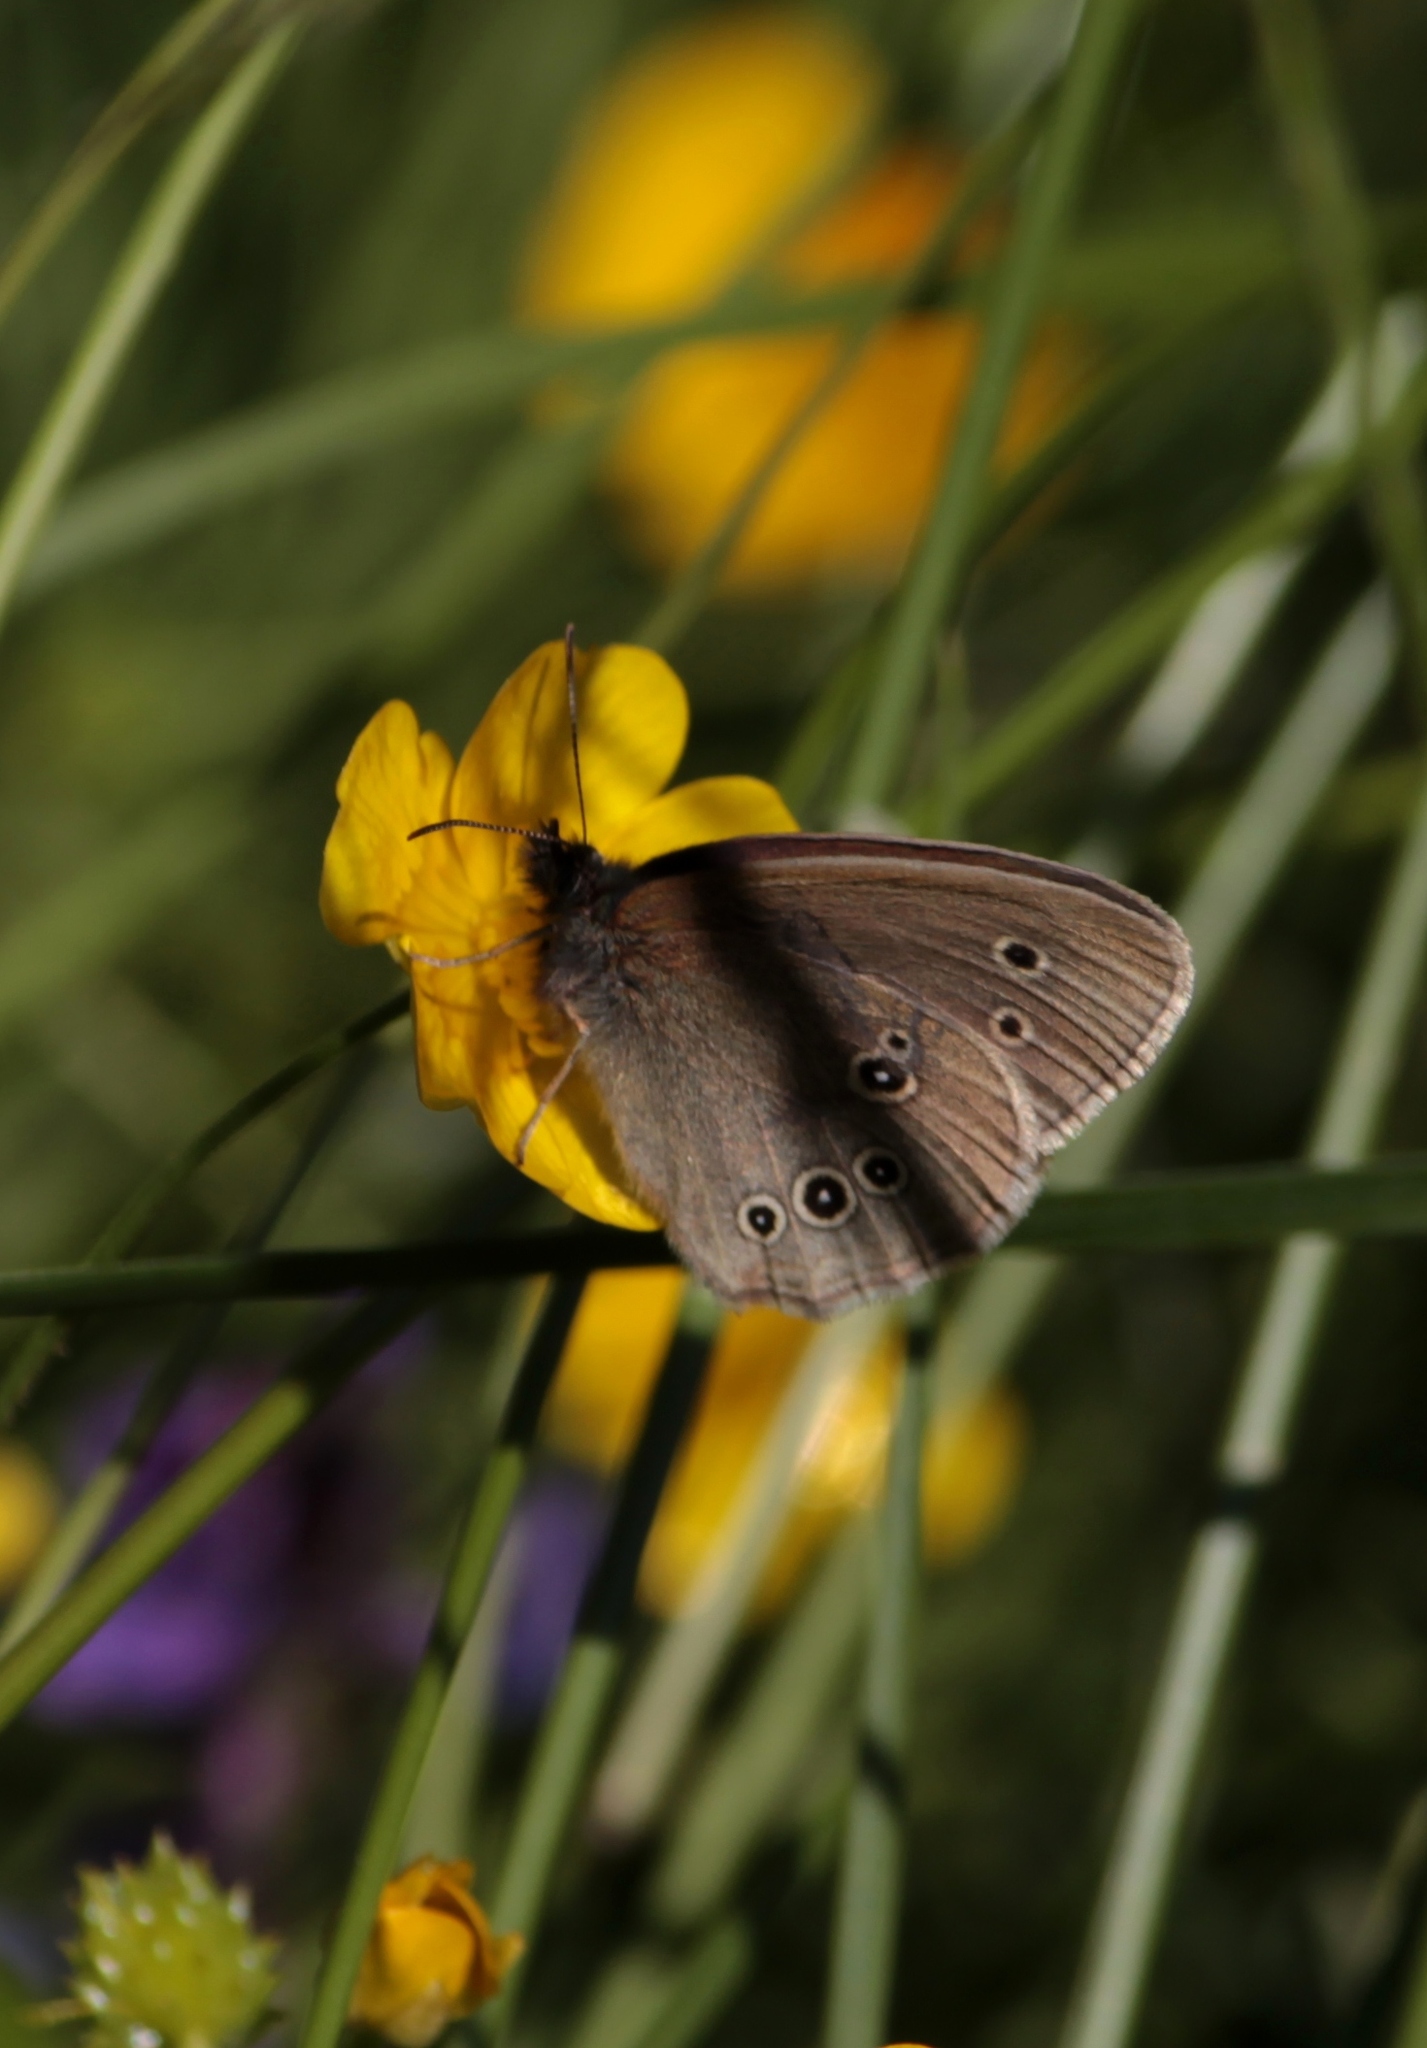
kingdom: Animalia
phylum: Arthropoda
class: Insecta
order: Lepidoptera
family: Nymphalidae
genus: Aphantopus
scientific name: Aphantopus hyperantus
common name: Ringlet
